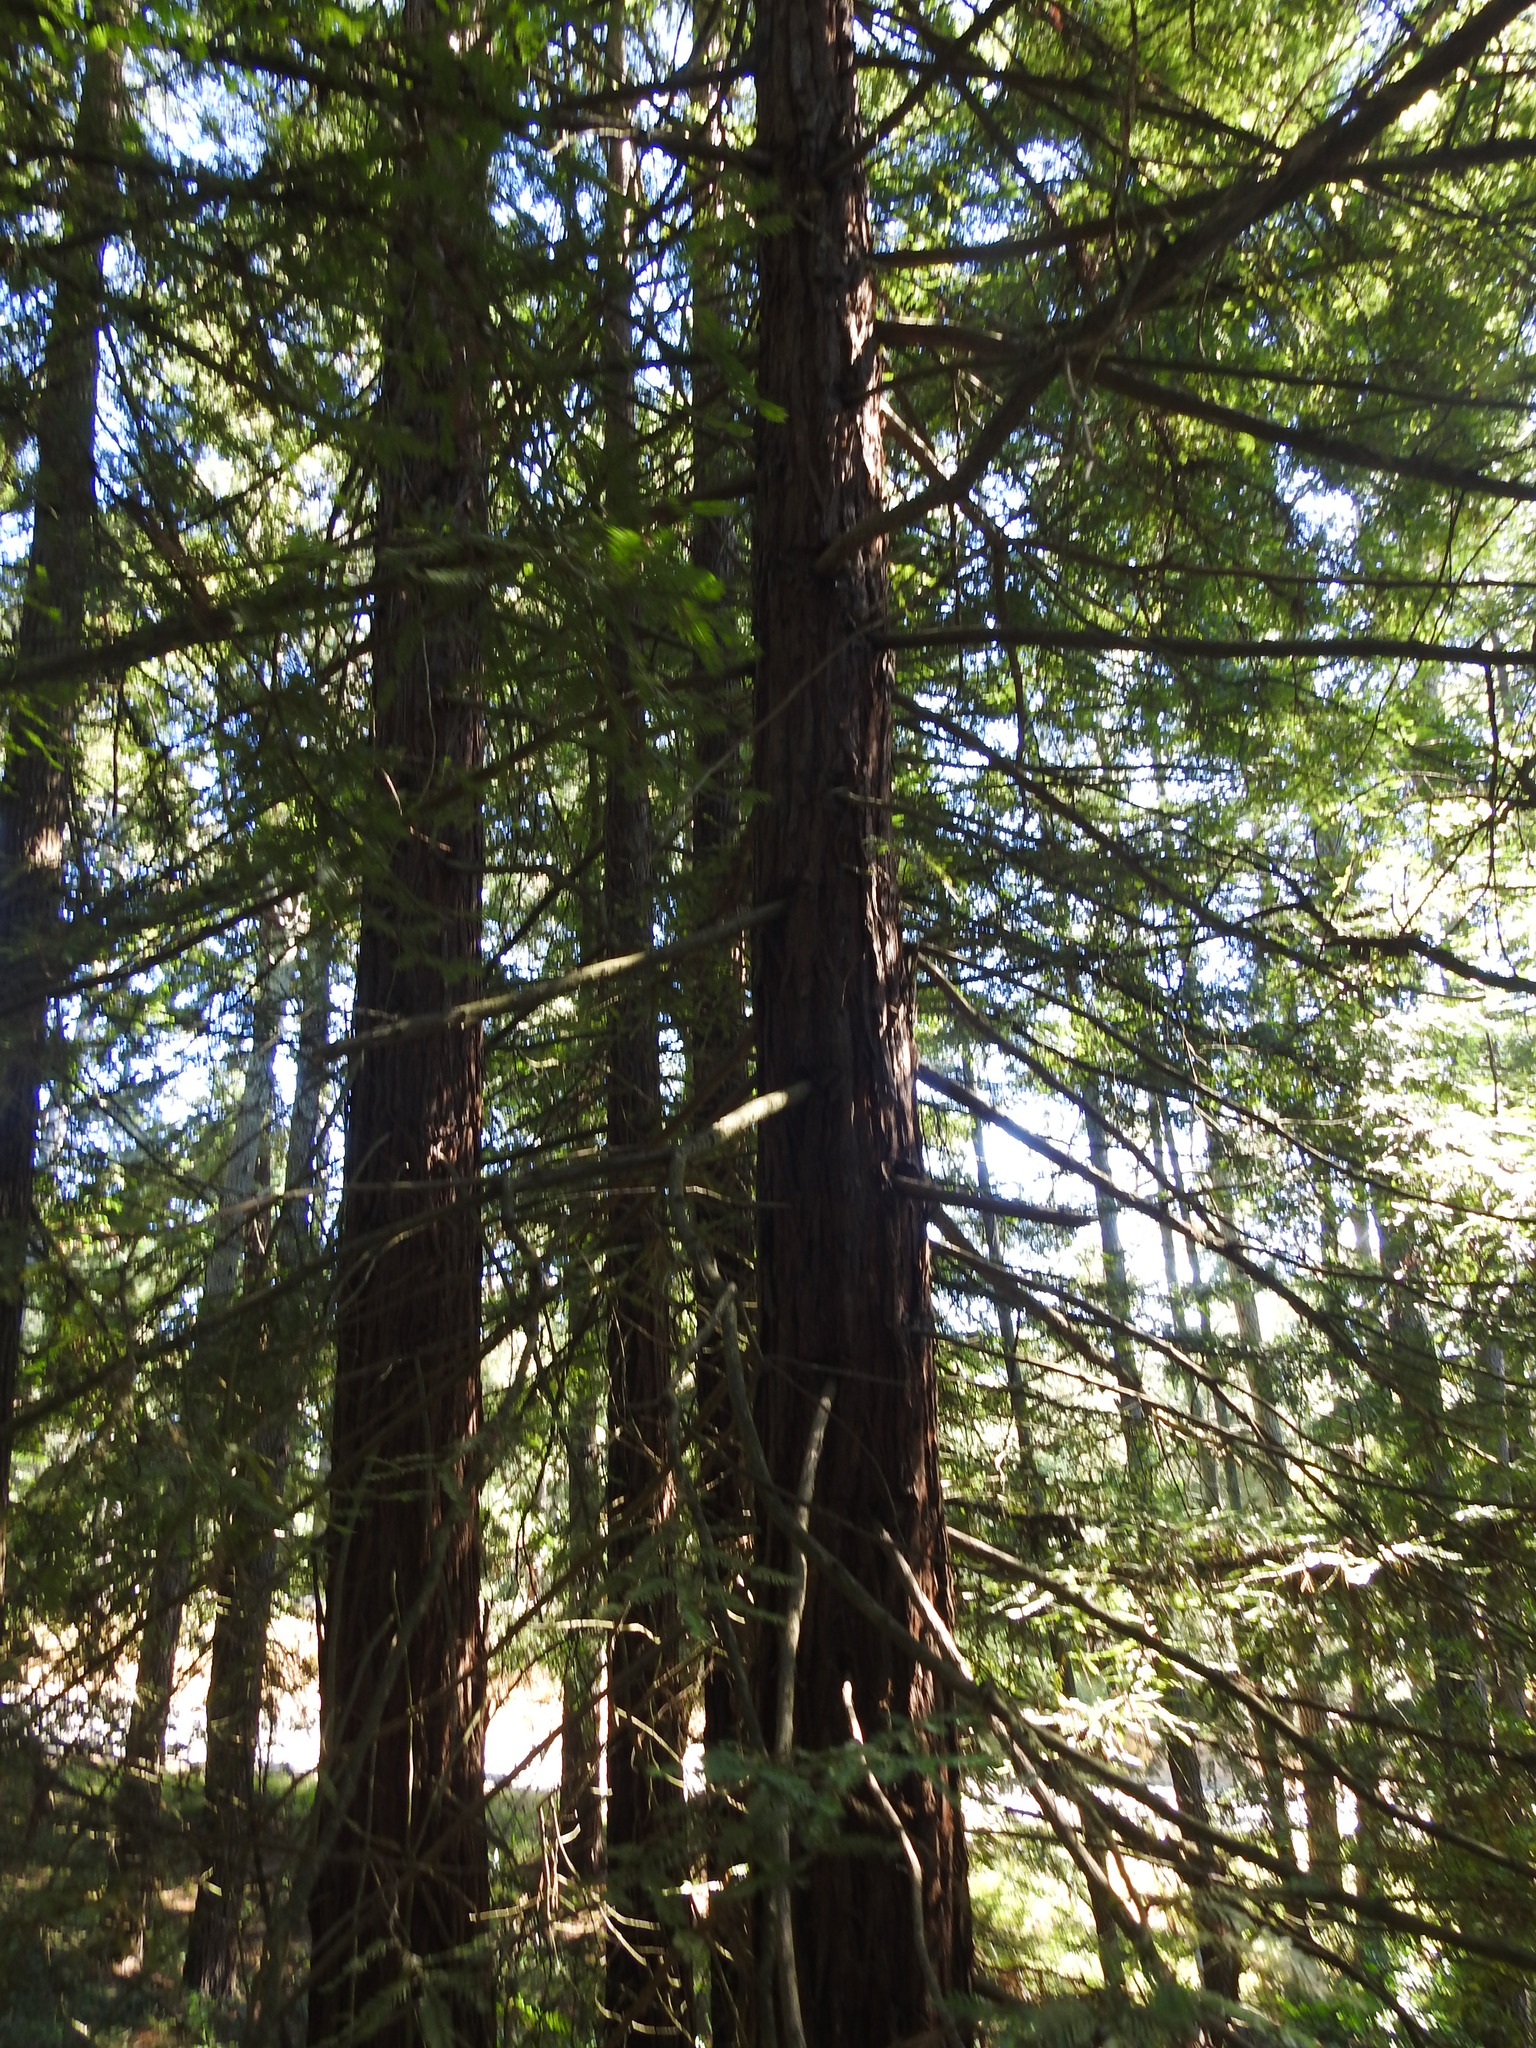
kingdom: Plantae
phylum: Tracheophyta
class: Pinopsida
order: Pinales
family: Cupressaceae
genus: Sequoia
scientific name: Sequoia sempervirens
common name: Coast redwood
